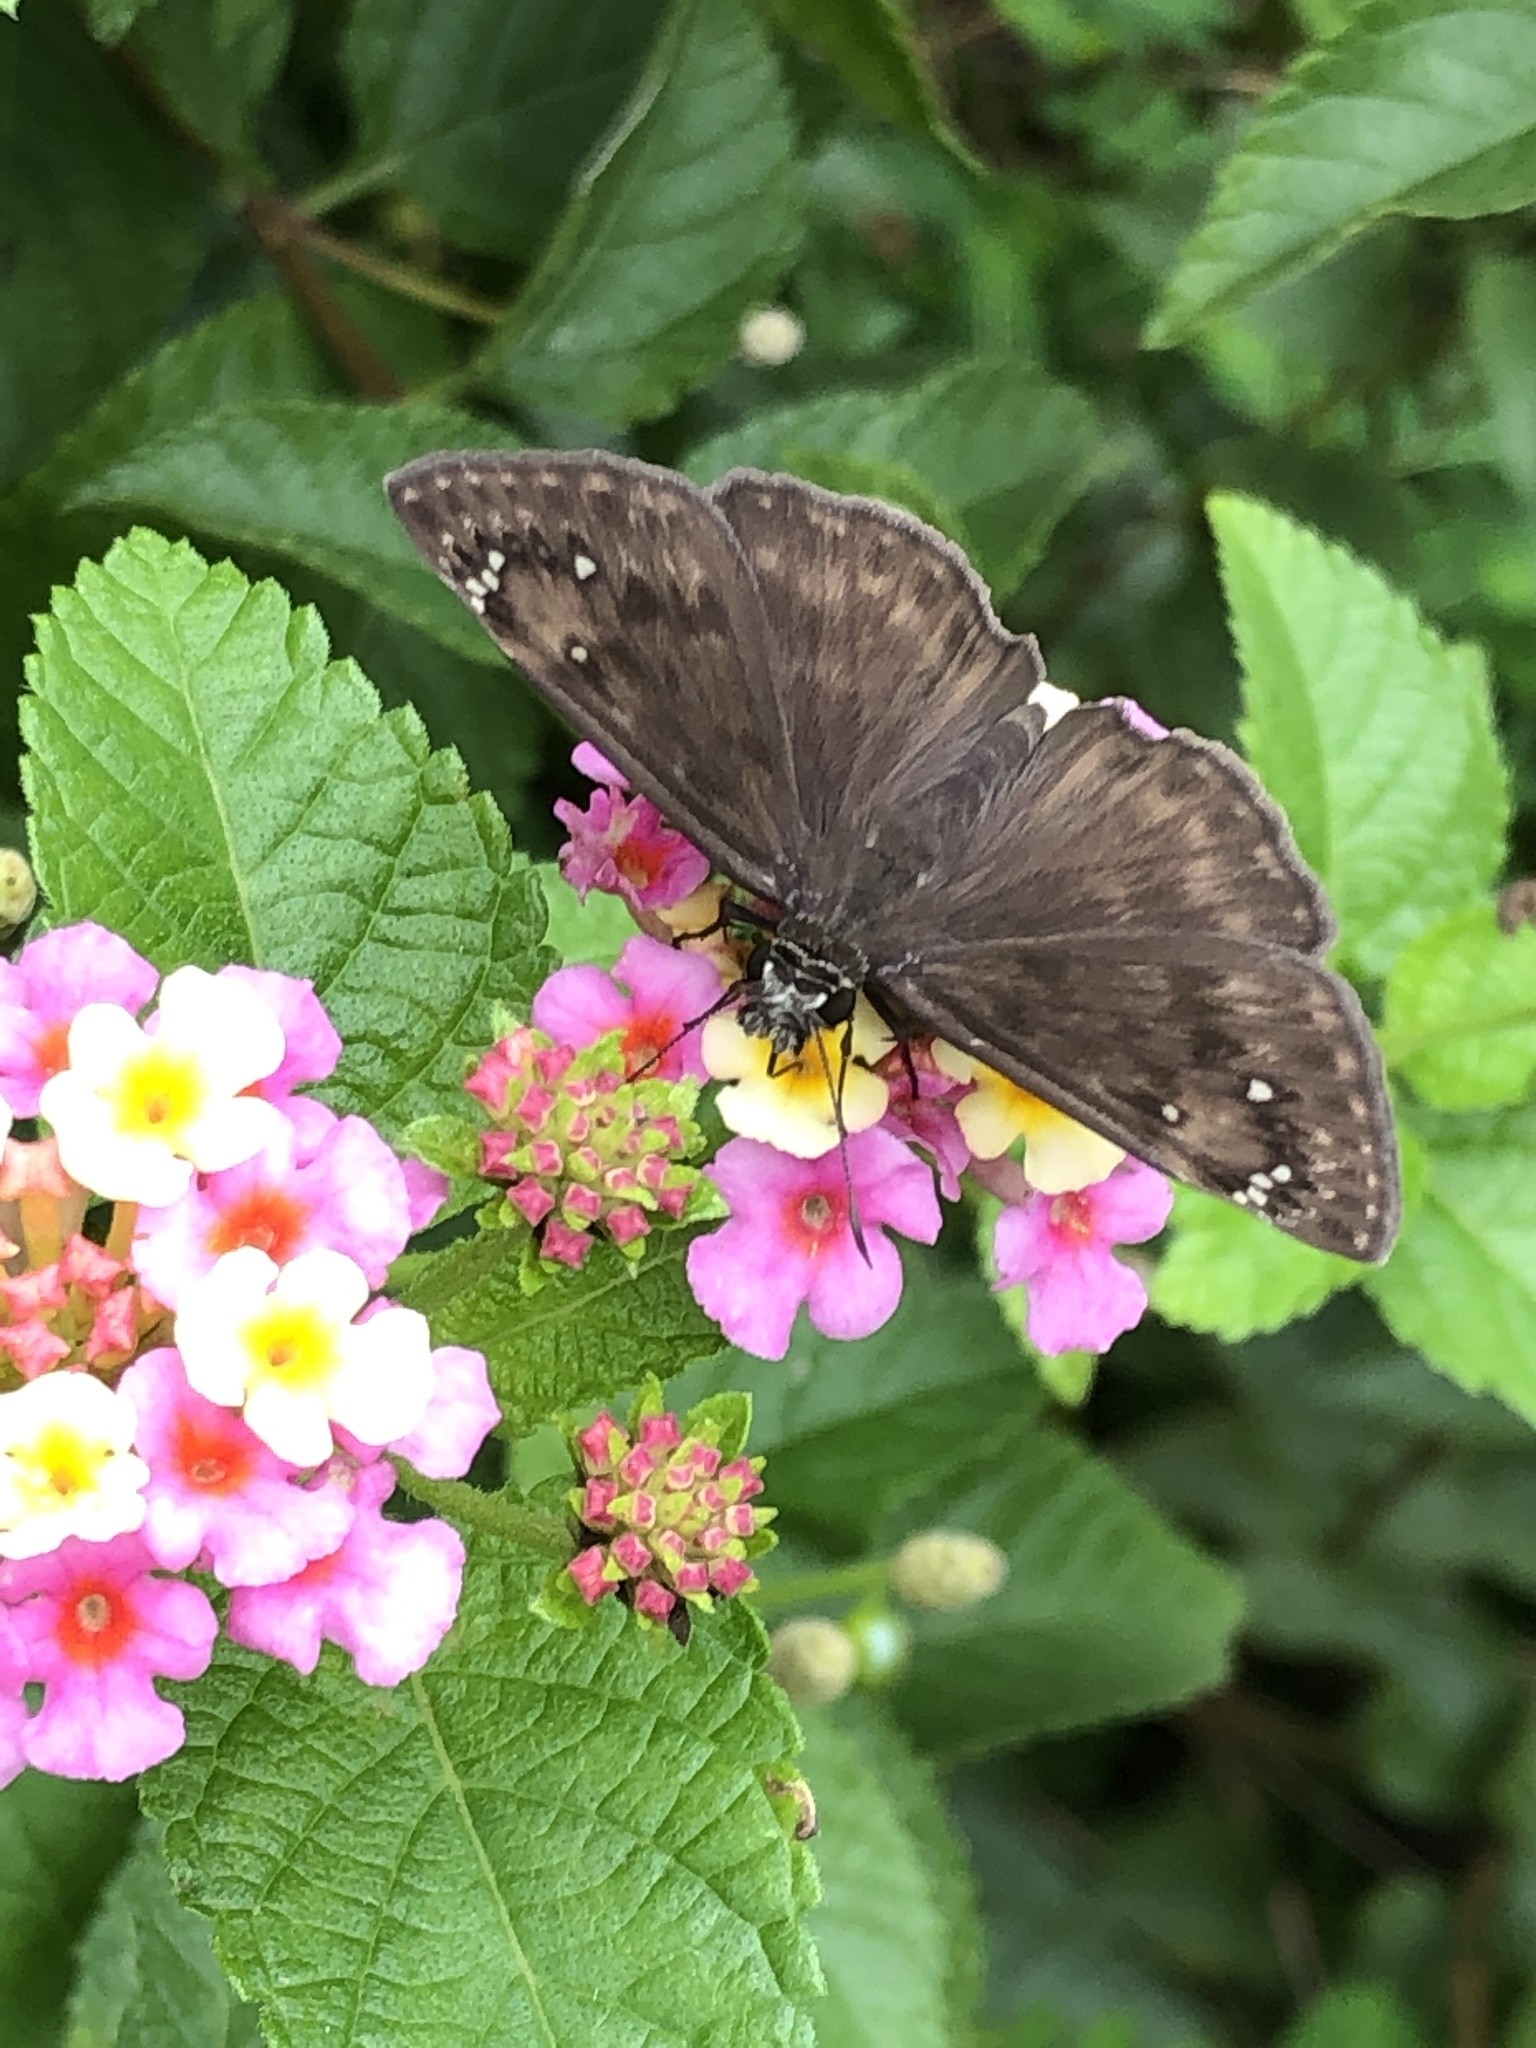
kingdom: Animalia
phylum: Arthropoda
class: Insecta
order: Lepidoptera
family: Hesperiidae
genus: Erynnis
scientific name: Erynnis horatius
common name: Horace's duskywing
